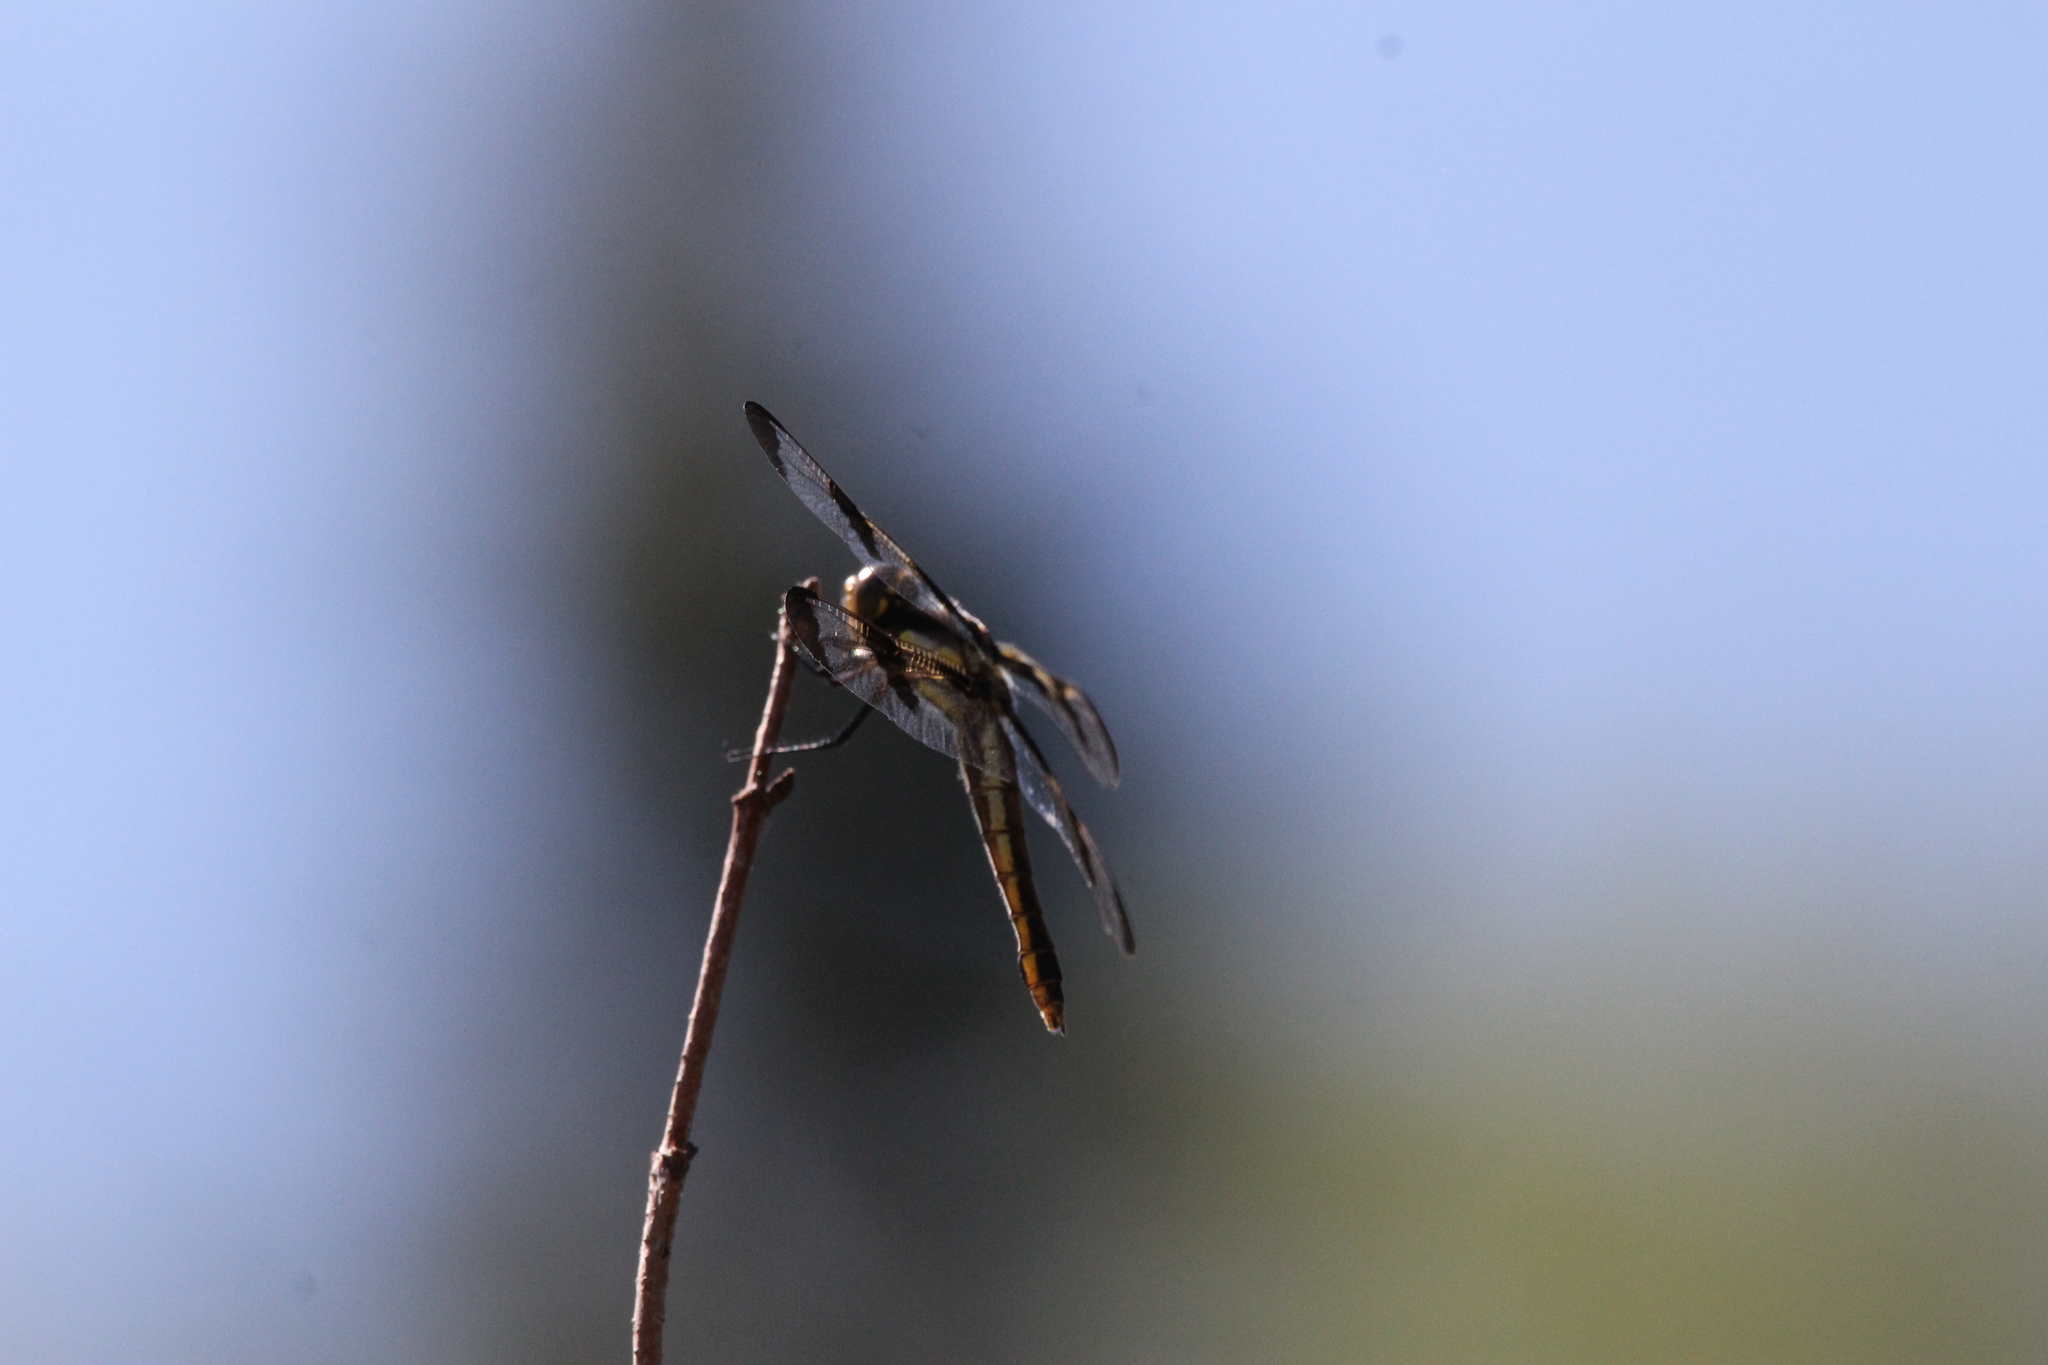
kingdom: Animalia
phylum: Arthropoda
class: Insecta
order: Odonata
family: Libellulidae
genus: Libellula
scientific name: Libellula pulchella
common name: Twelve-spotted skimmer
